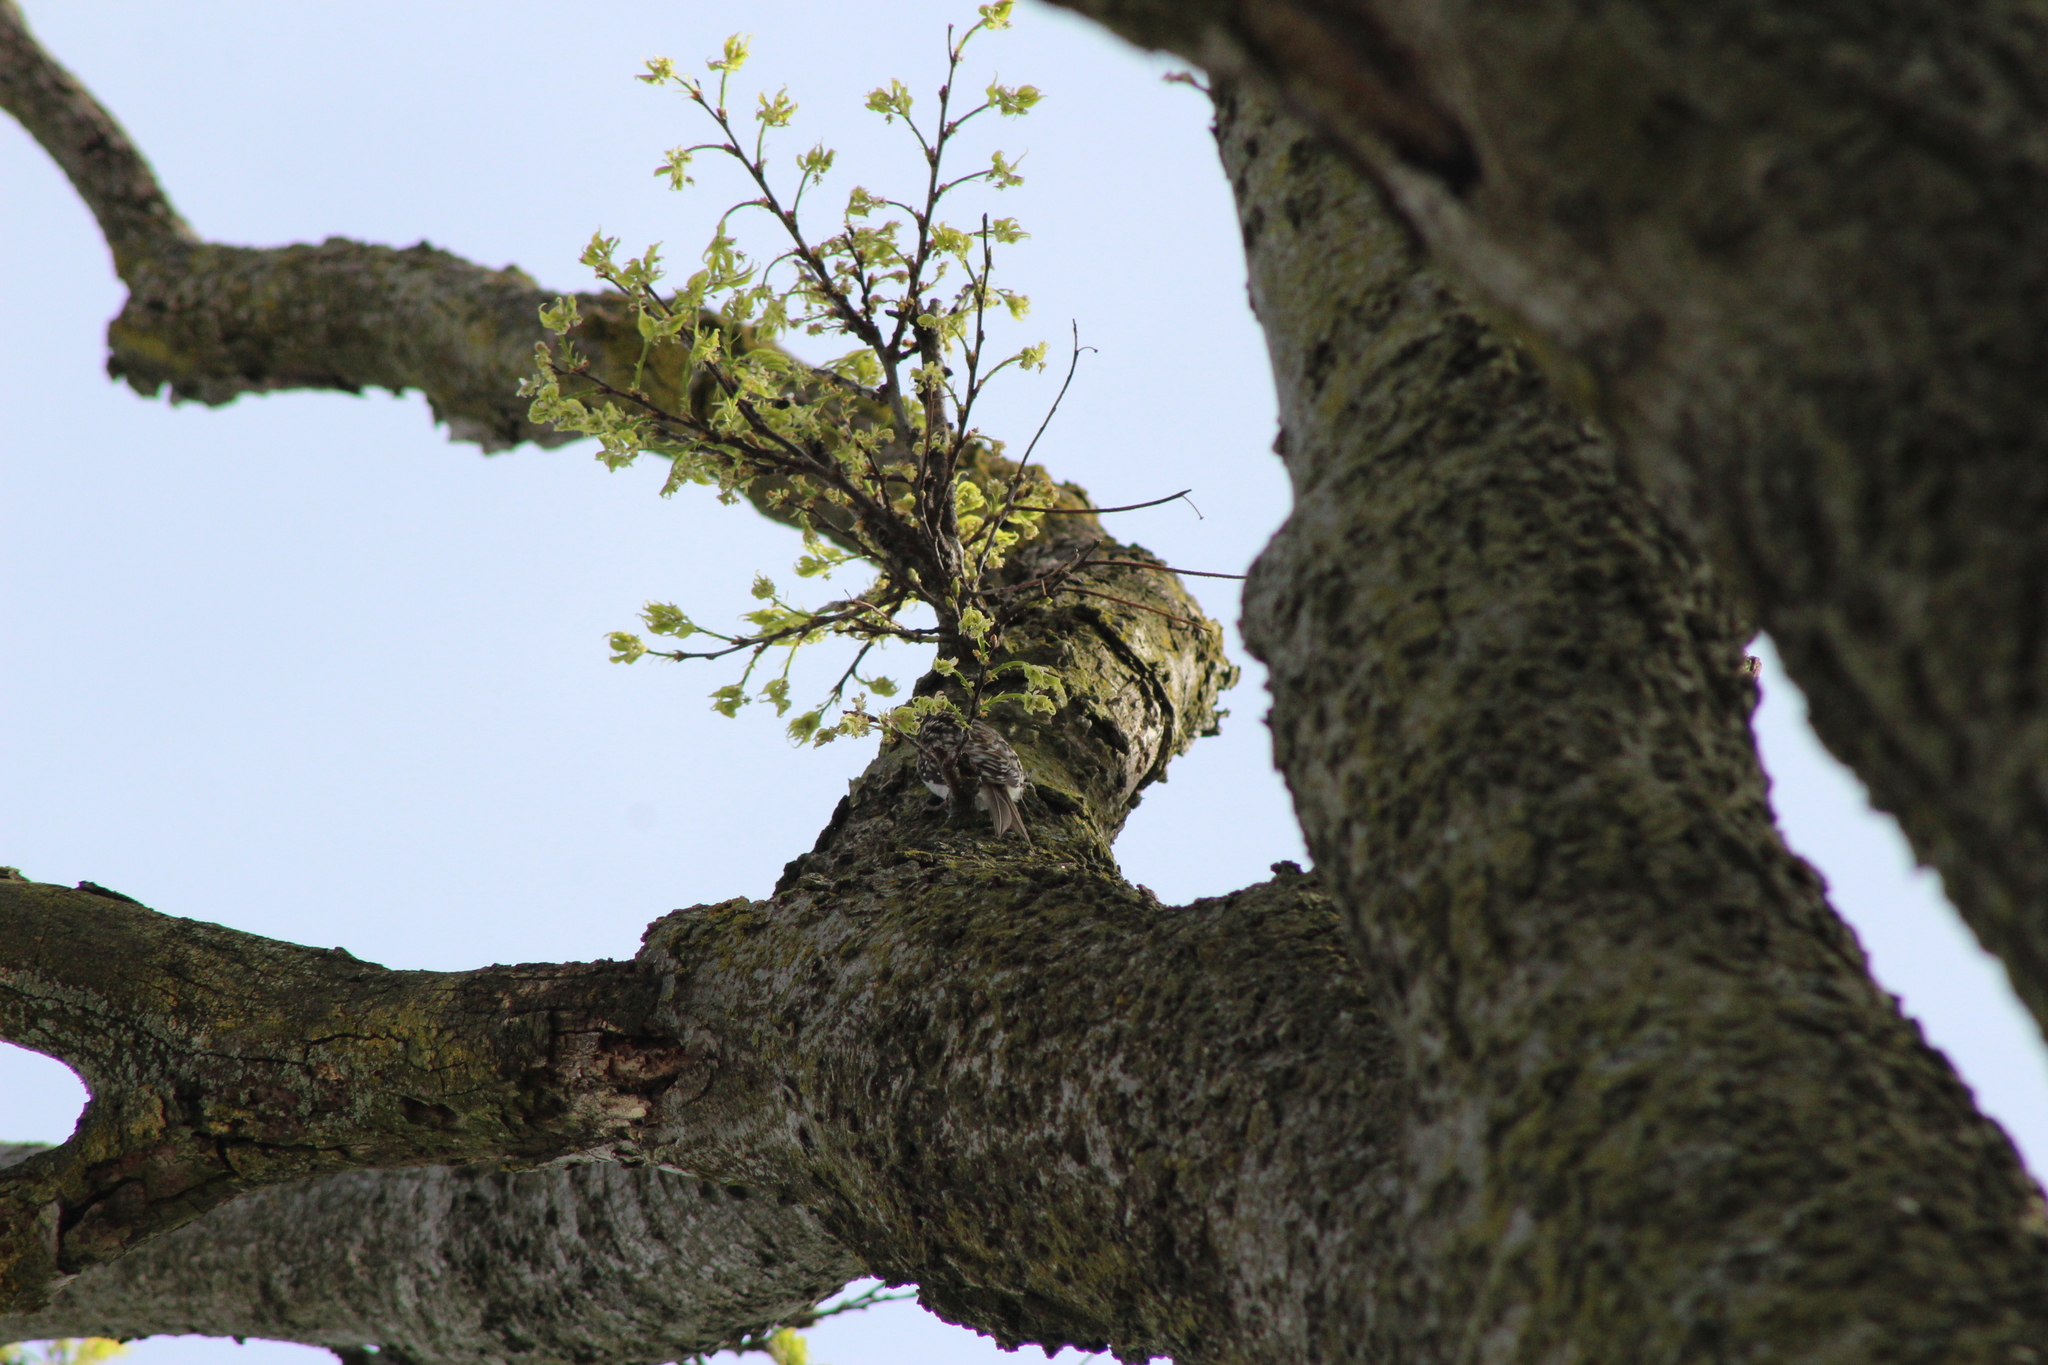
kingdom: Animalia
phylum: Chordata
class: Aves
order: Passeriformes
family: Certhiidae
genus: Certhia
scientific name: Certhia americana
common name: Brown creeper
